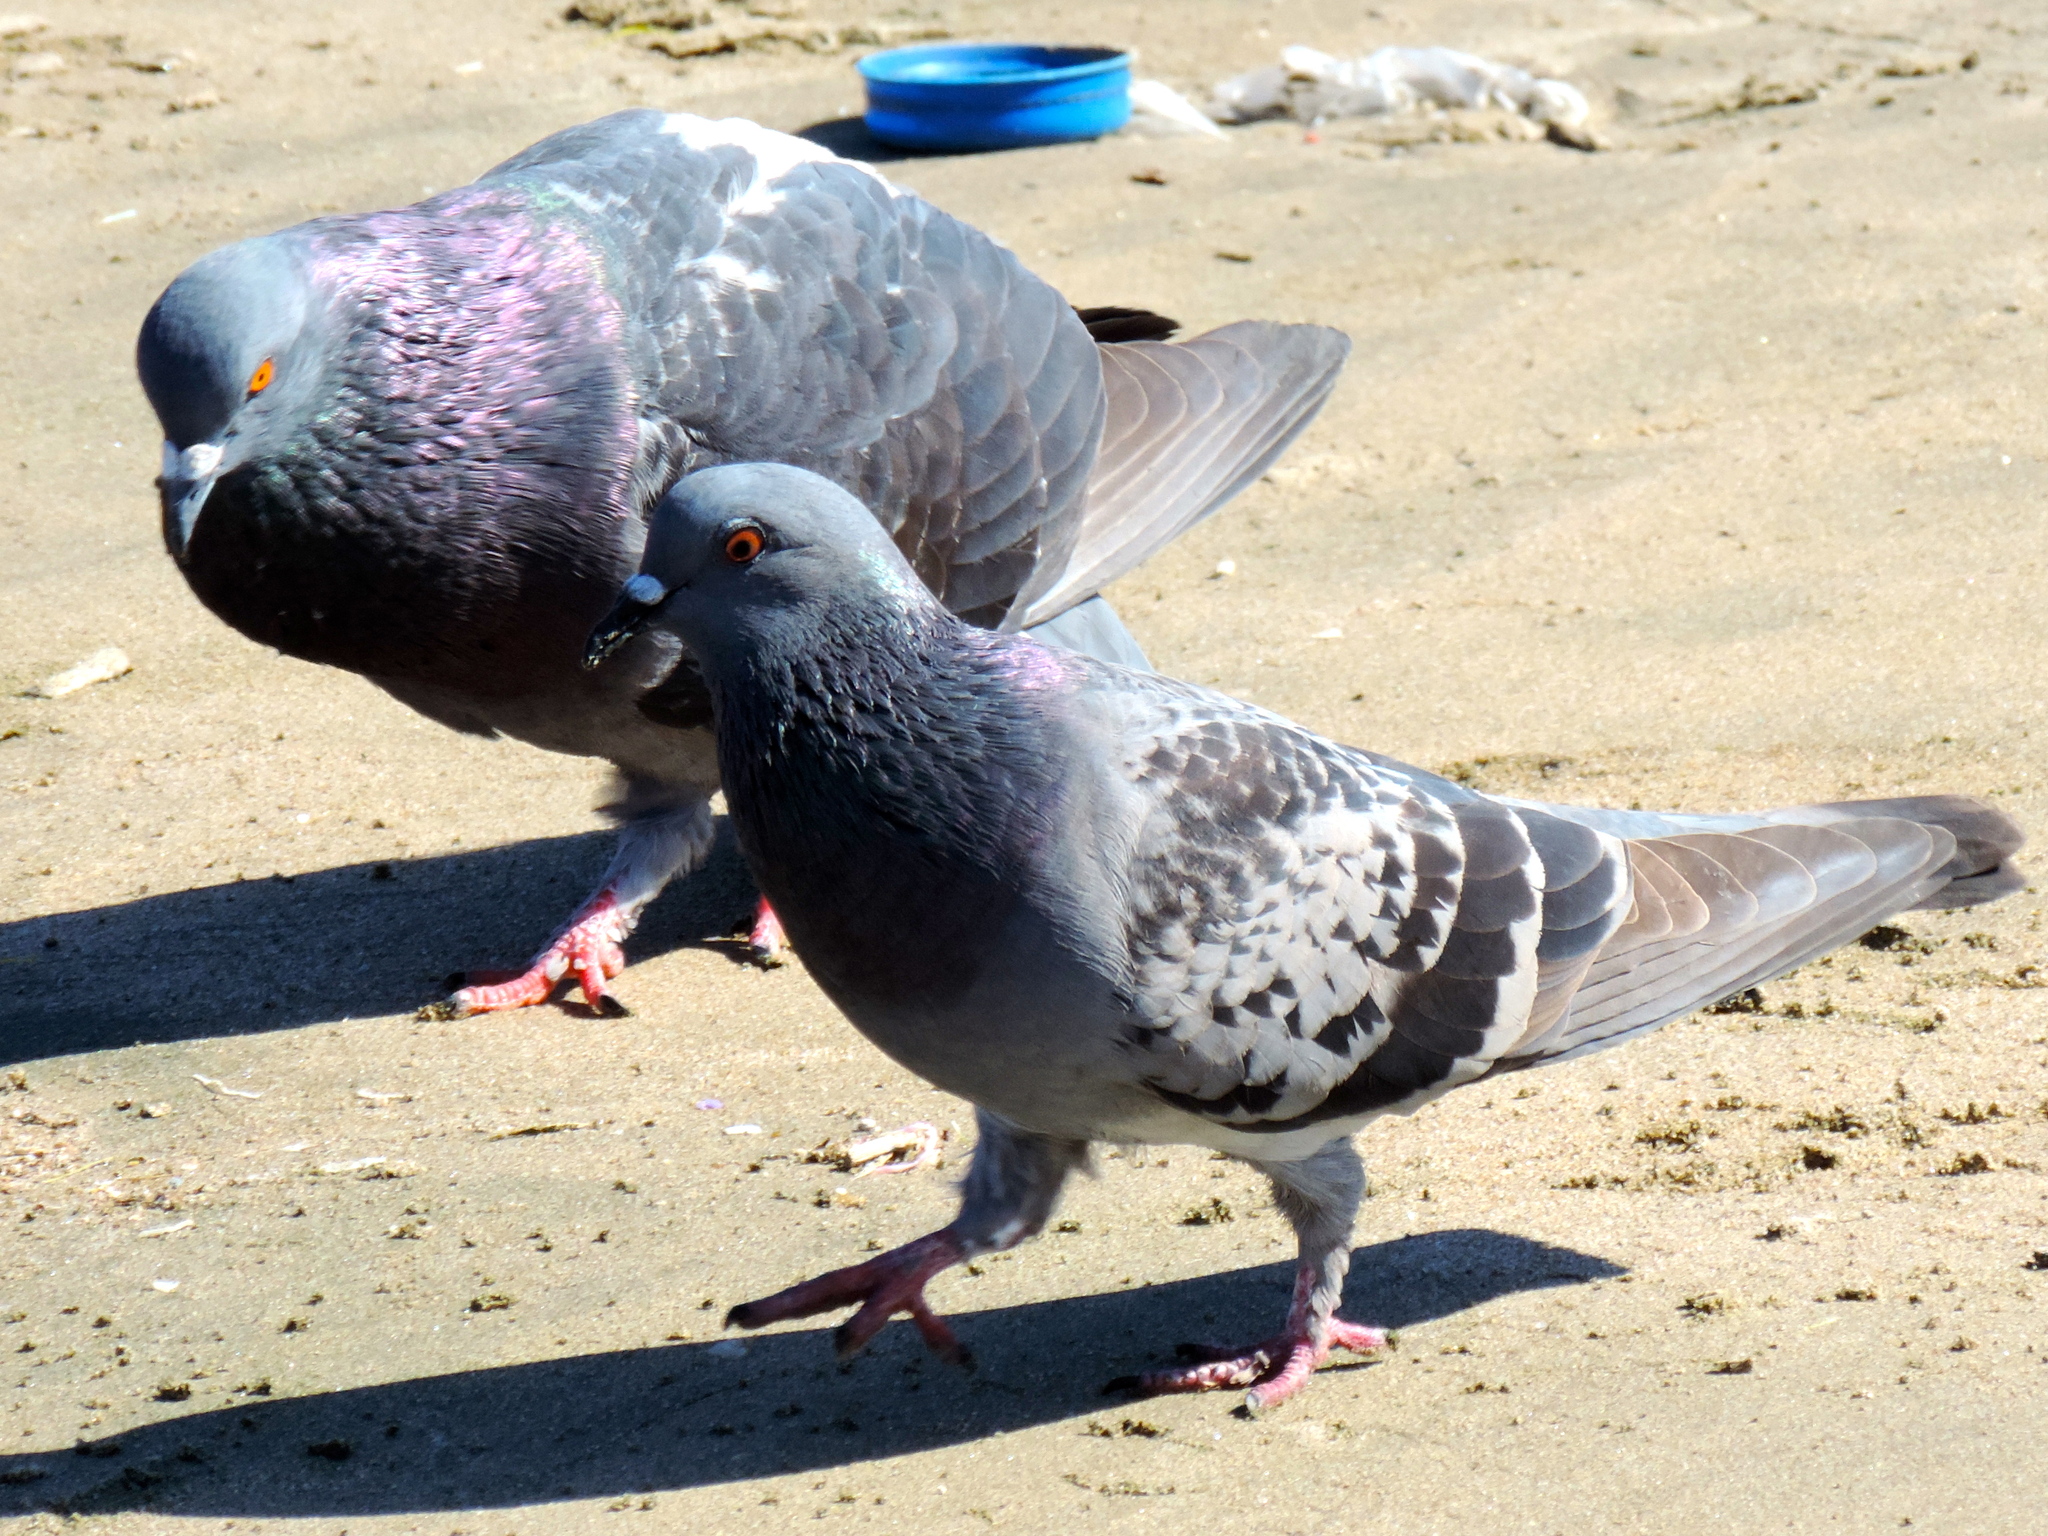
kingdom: Animalia
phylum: Chordata
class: Aves
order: Columbiformes
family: Columbidae
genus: Columba
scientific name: Columba livia
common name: Rock pigeon
